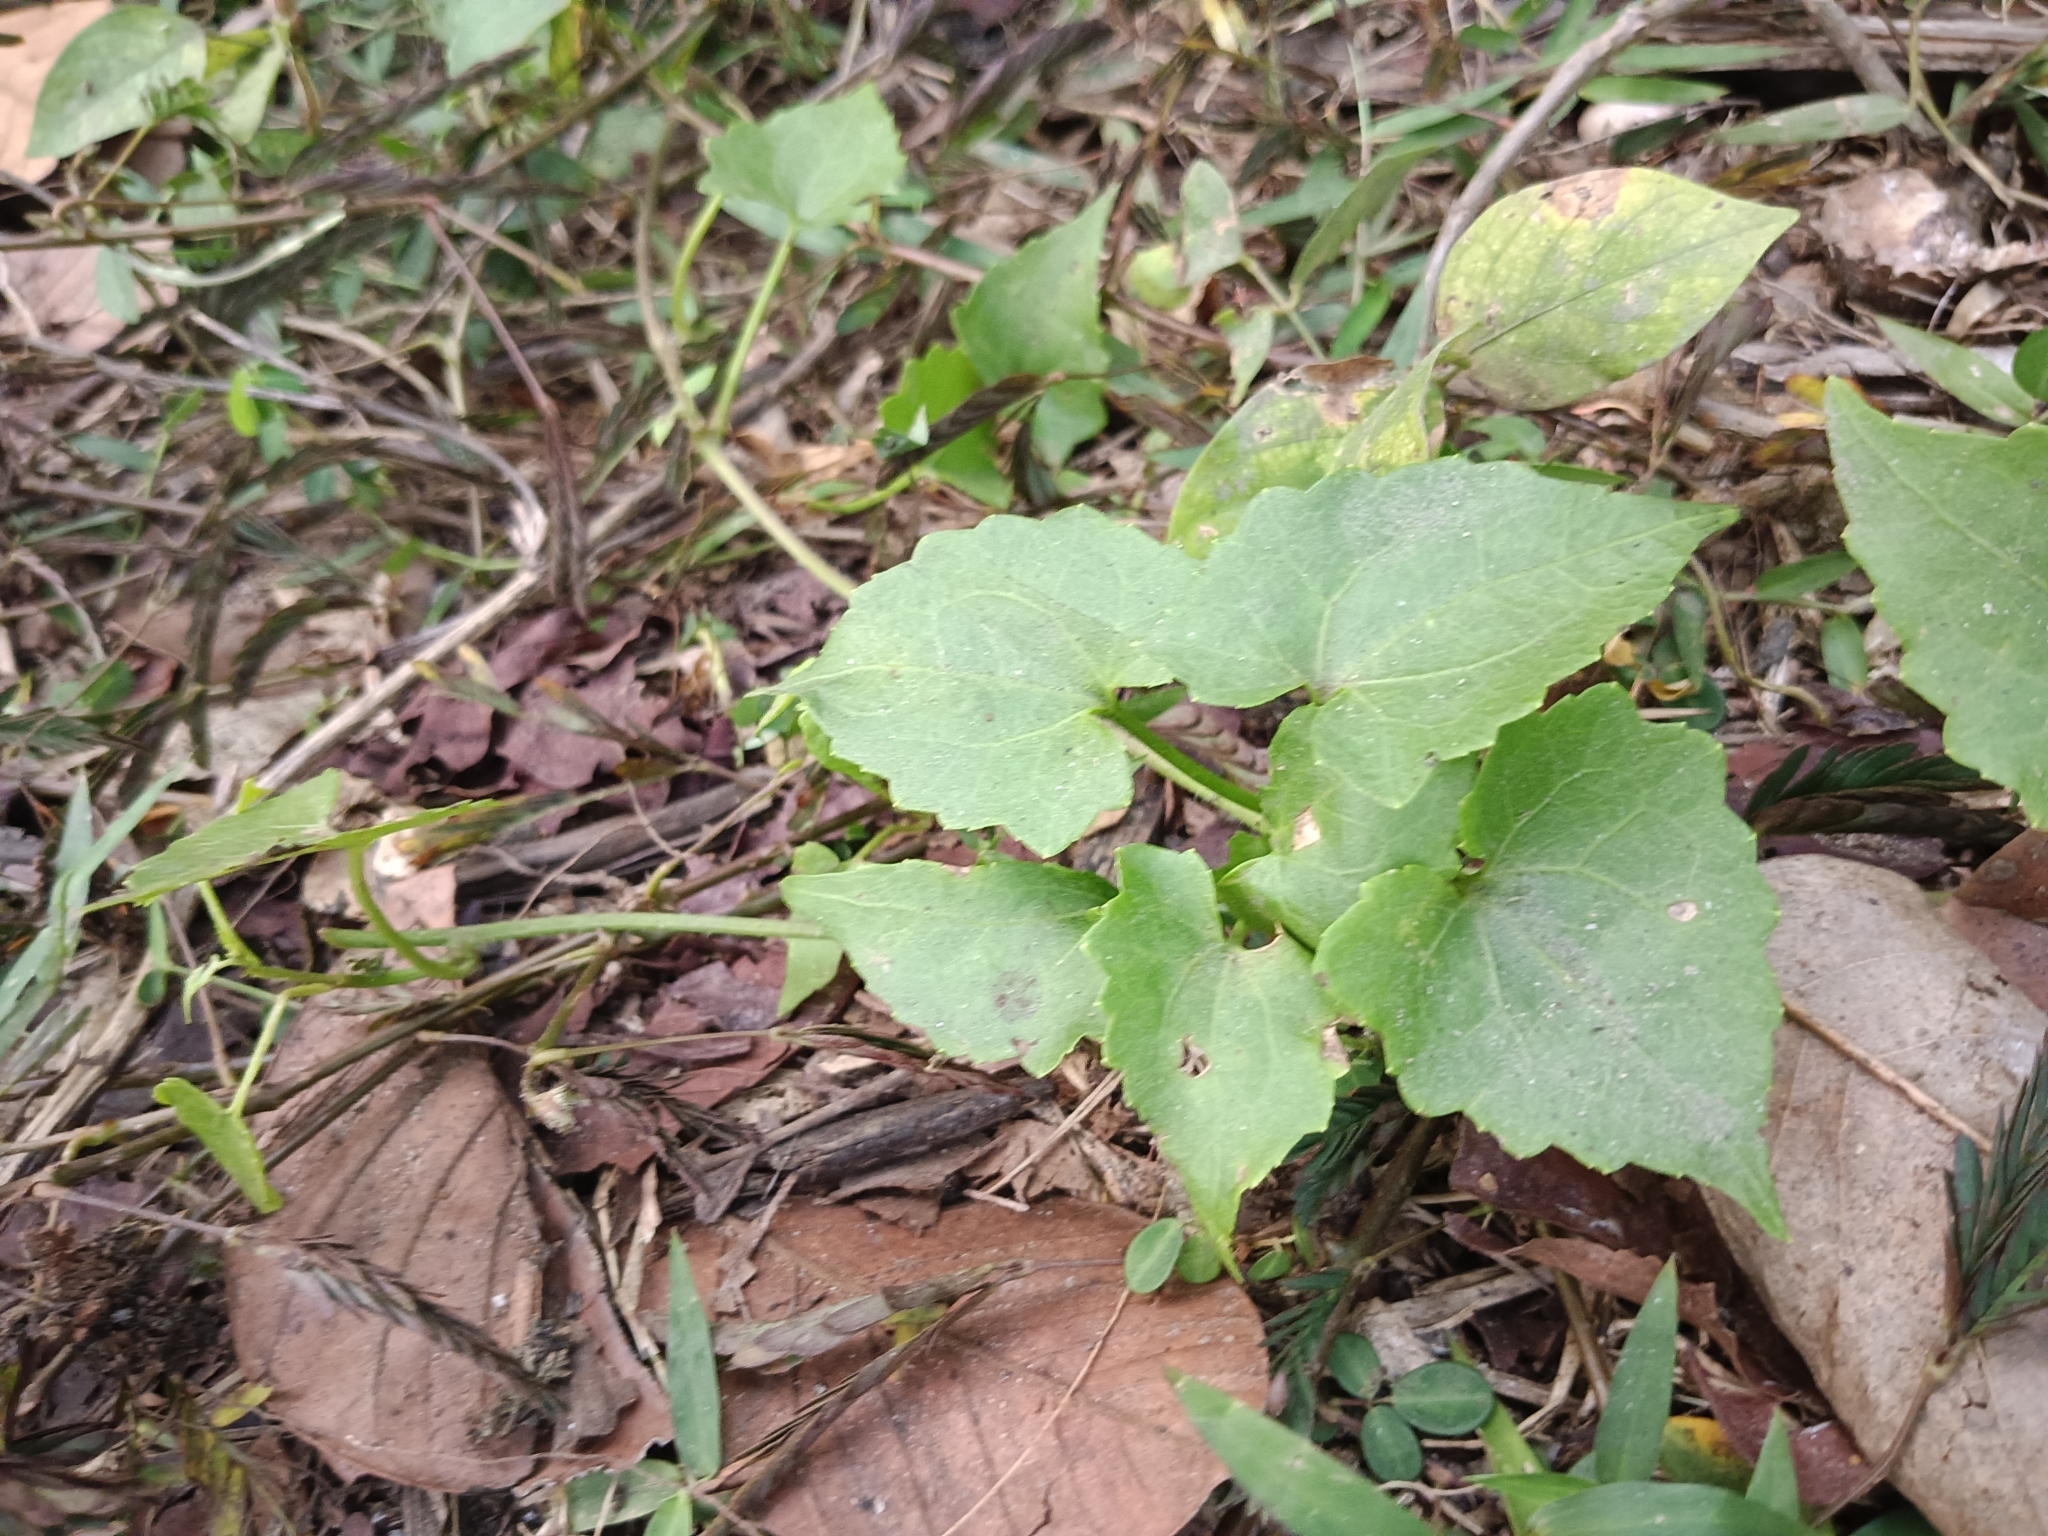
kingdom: Plantae
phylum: Tracheophyta
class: Magnoliopsida
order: Asterales
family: Asteraceae
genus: Mikania
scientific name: Mikania micrantha
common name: Mile-a-minute
